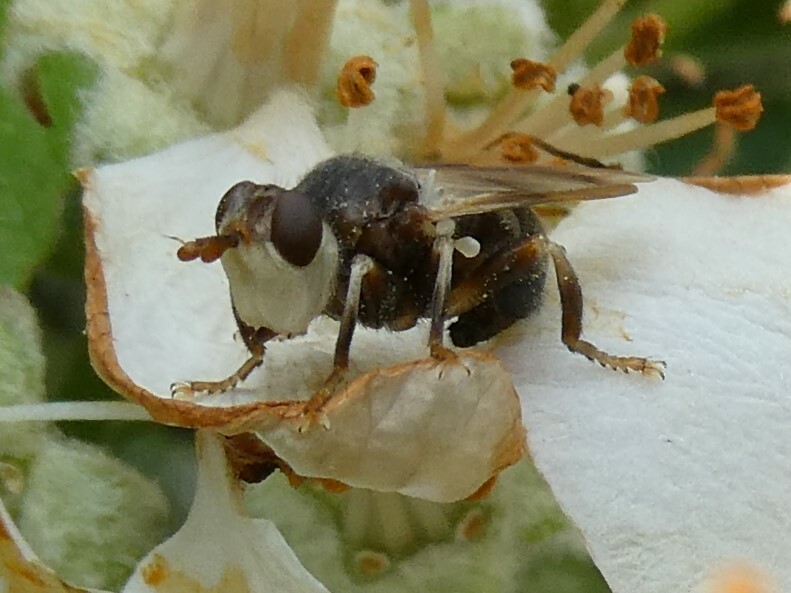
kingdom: Animalia
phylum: Arthropoda
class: Insecta
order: Diptera
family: Conopidae
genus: Myopa
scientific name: Myopa vesiculosa
